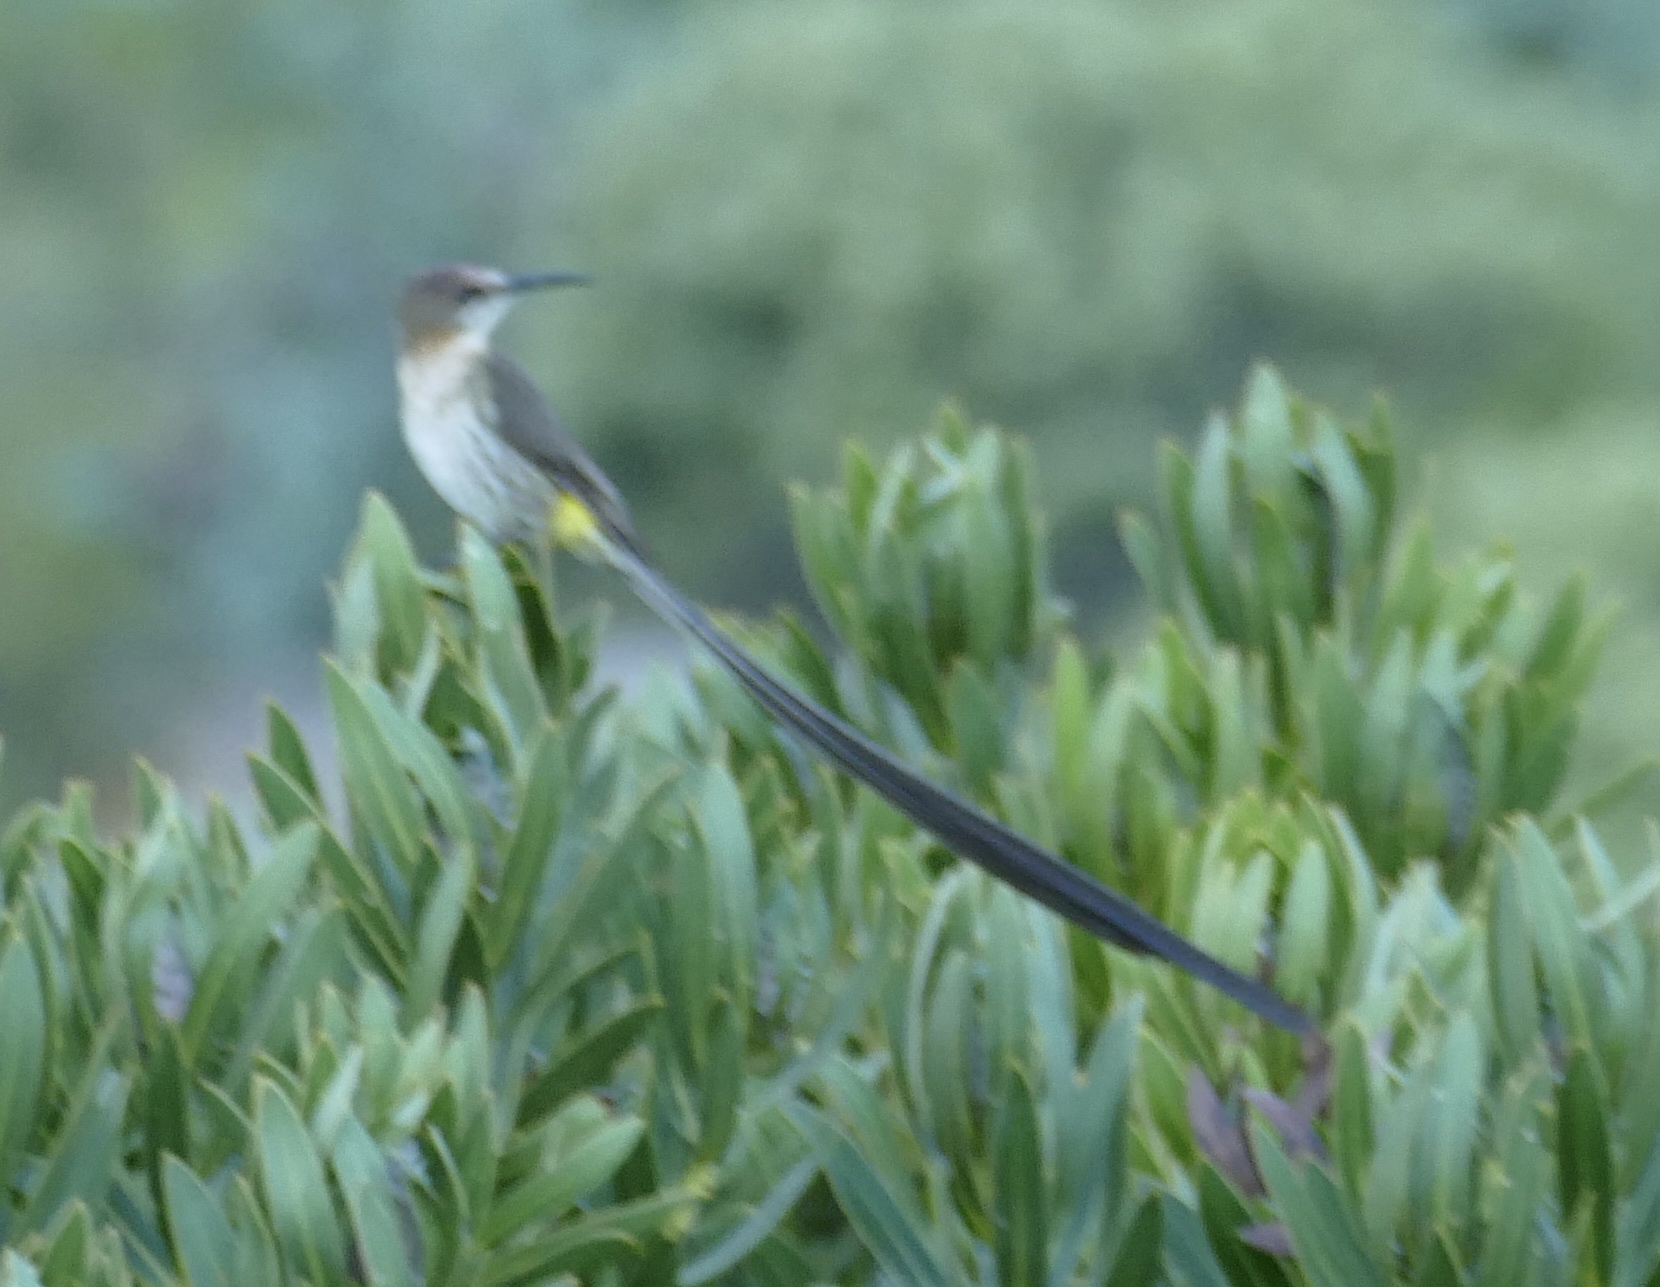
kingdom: Animalia
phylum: Chordata
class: Aves
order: Passeriformes
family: Promeropidae
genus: Promerops
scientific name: Promerops cafer
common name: Cape sugarbird
